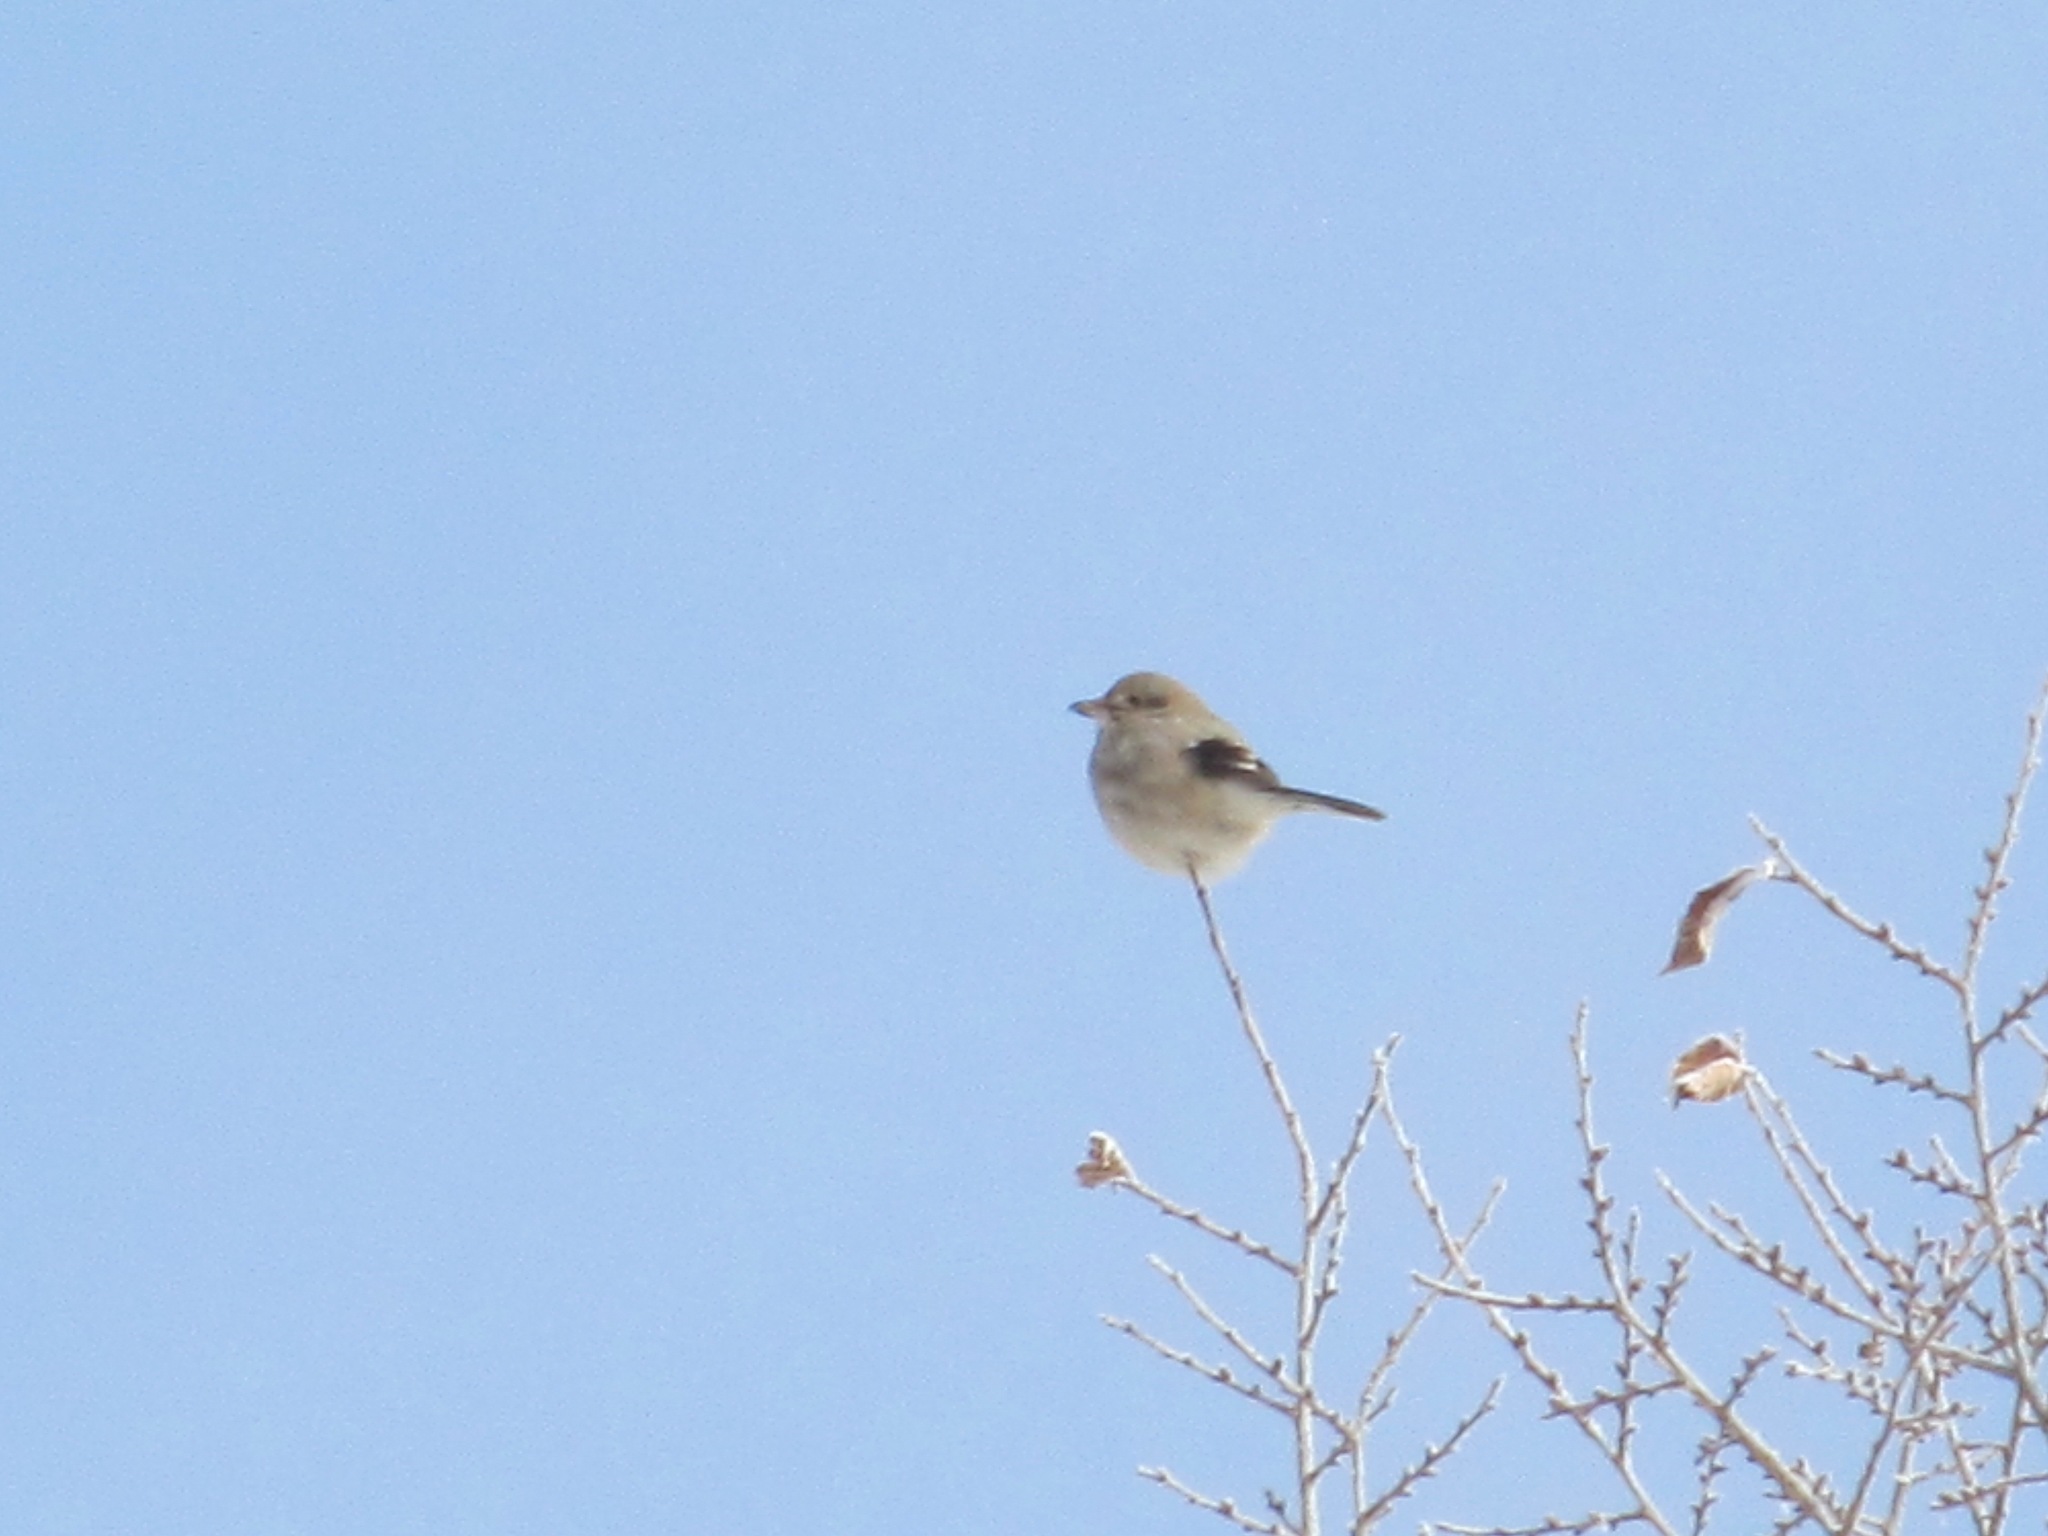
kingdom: Animalia
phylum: Chordata
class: Aves
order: Passeriformes
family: Laniidae
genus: Lanius
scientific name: Lanius borealis
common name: Northern shrike
